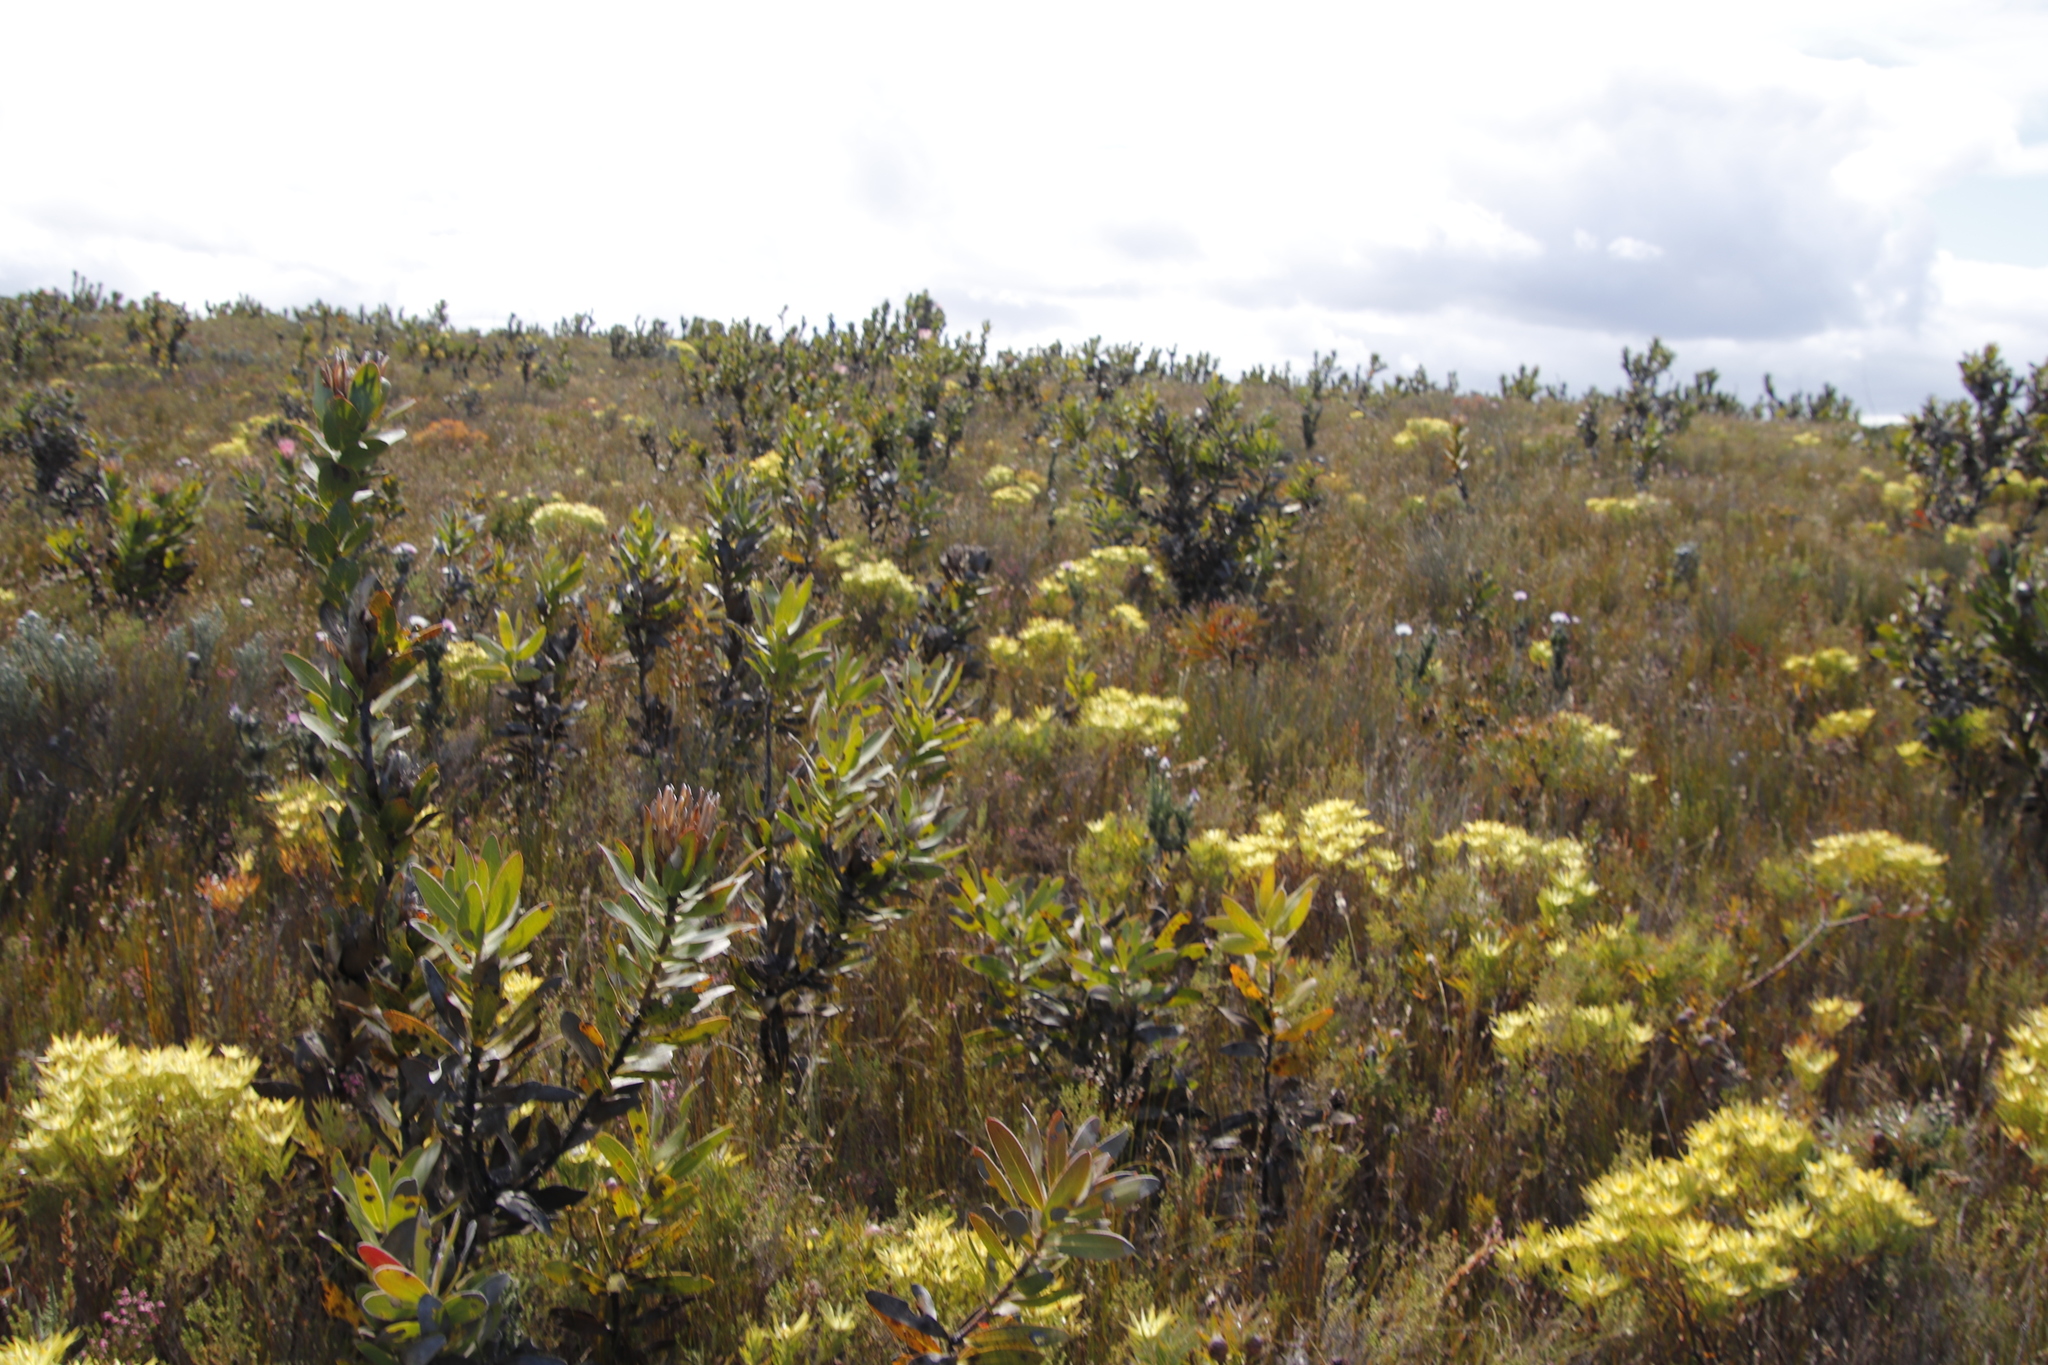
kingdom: Plantae
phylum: Tracheophyta
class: Magnoliopsida
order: Proteales
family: Proteaceae
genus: Leucadendron
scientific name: Leucadendron xanthoconus
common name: Sickle-leaf conebush
